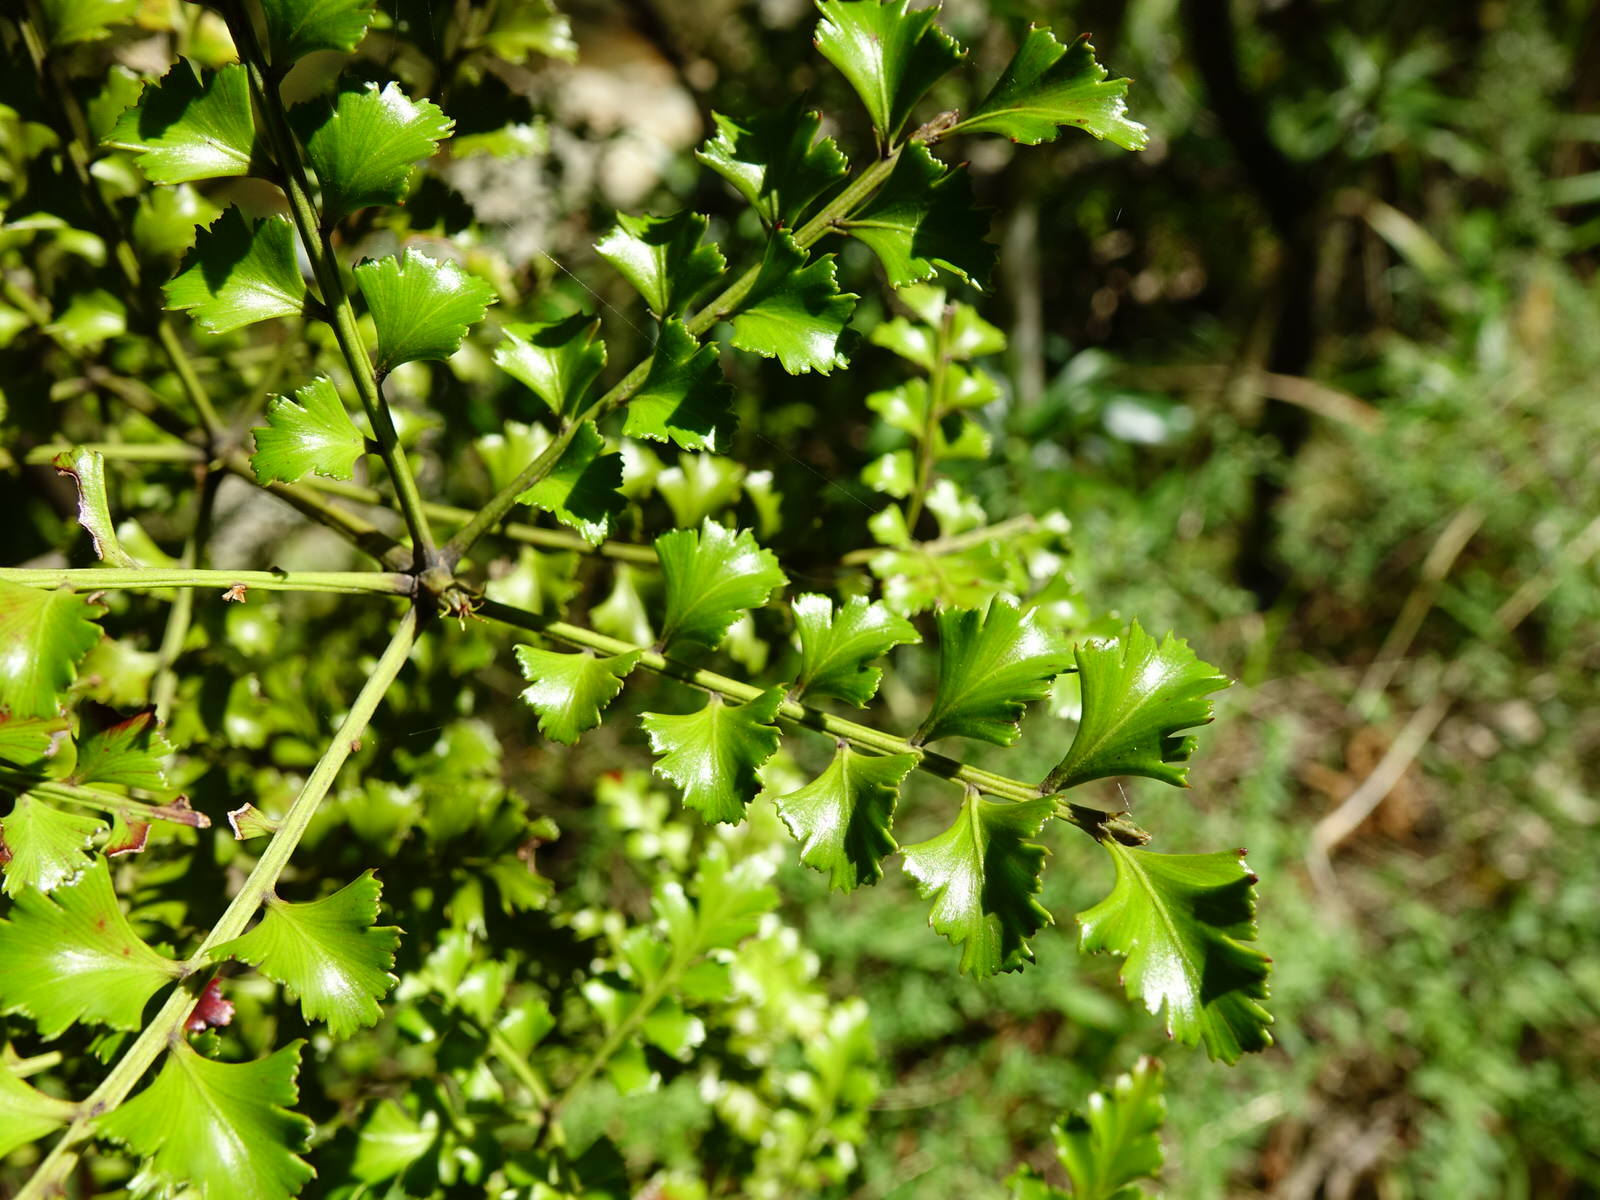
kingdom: Plantae
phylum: Tracheophyta
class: Pinopsida
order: Pinales
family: Phyllocladaceae
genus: Phyllocladus
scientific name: Phyllocladus trichomanoides
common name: Celery pine
